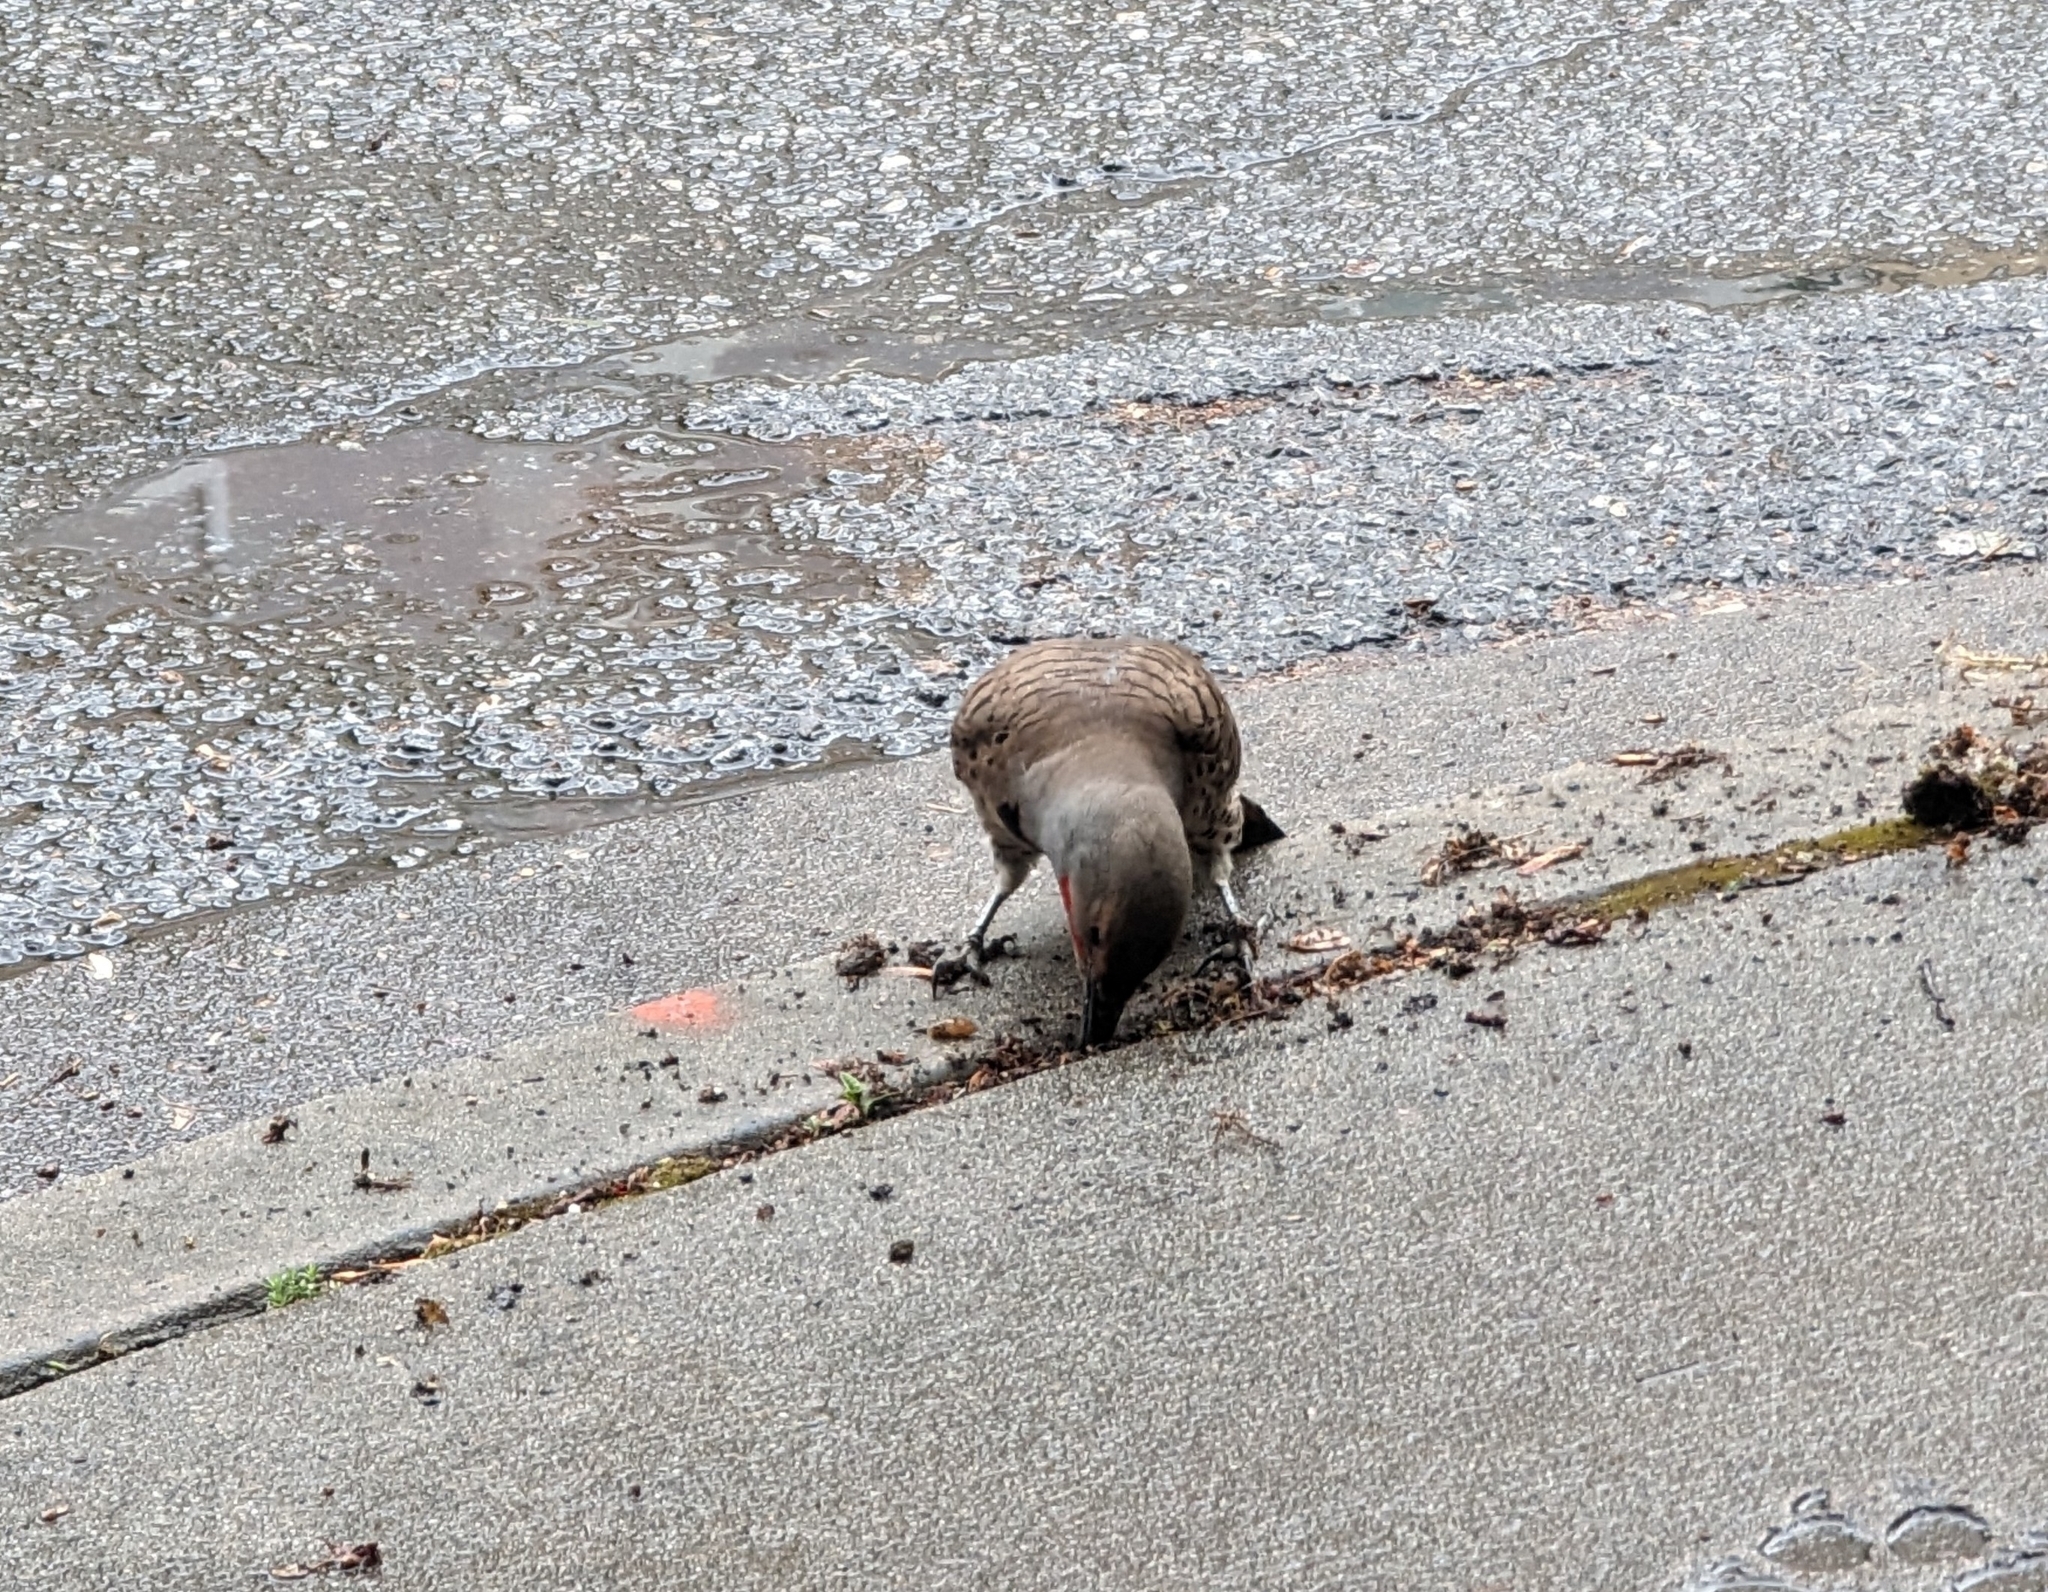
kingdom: Animalia
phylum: Chordata
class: Aves
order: Piciformes
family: Picidae
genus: Colaptes
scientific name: Colaptes auratus
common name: Northern flicker
